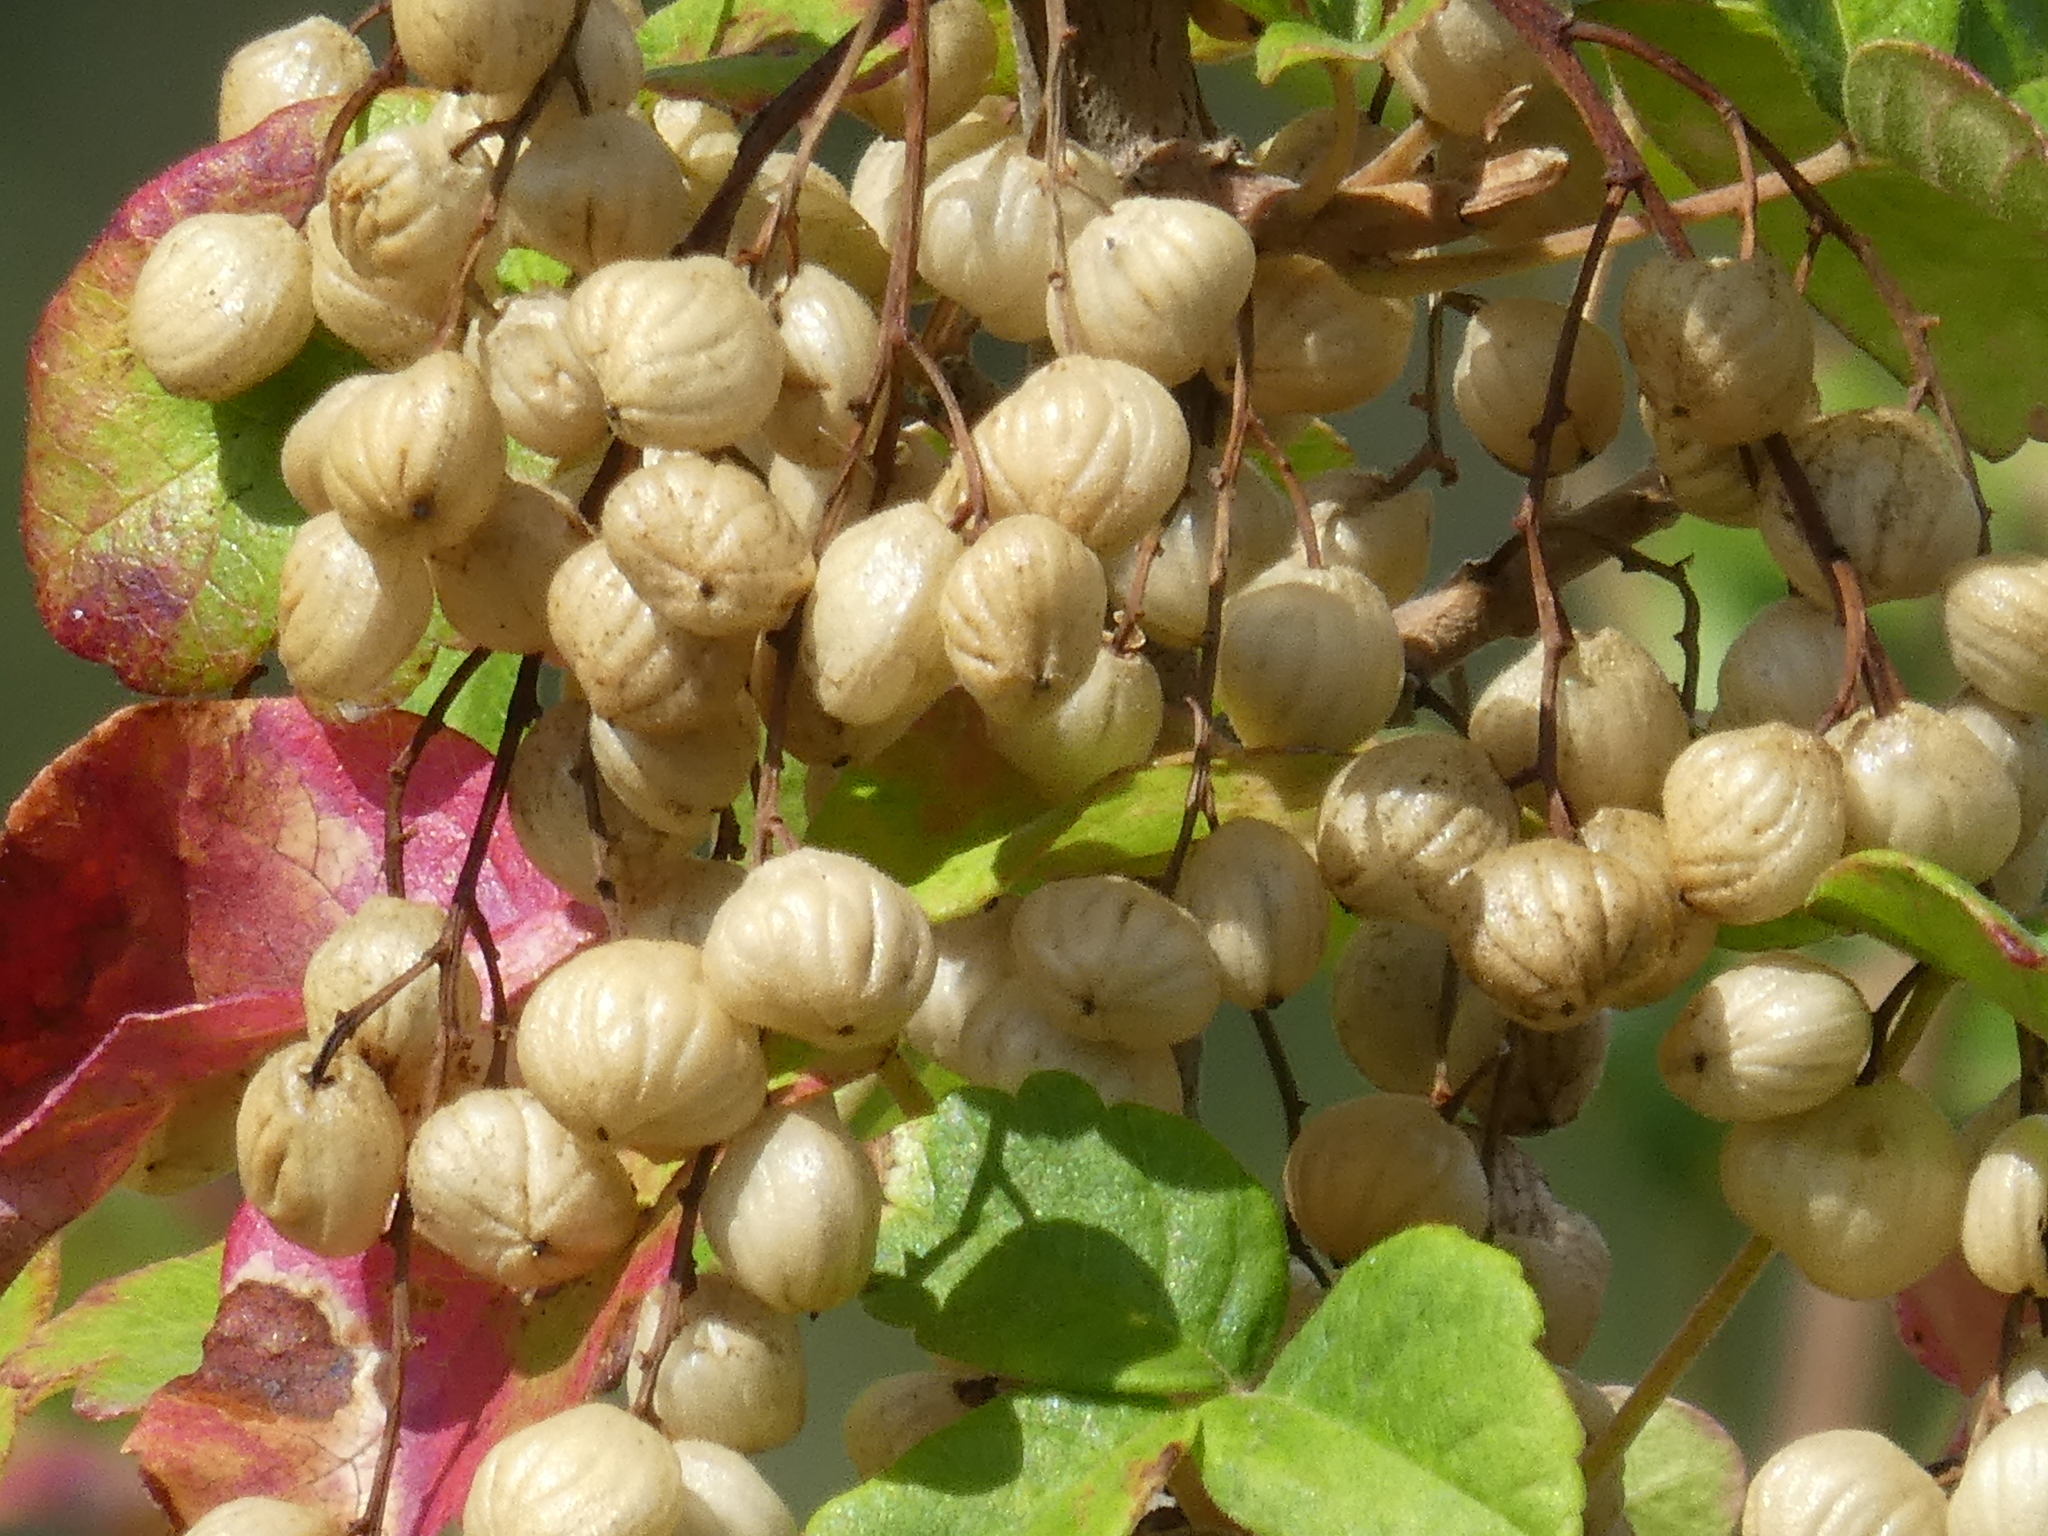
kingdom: Plantae
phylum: Tracheophyta
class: Magnoliopsida
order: Sapindales
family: Anacardiaceae
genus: Toxicodendron
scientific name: Toxicodendron diversilobum
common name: Pacific poison-oak
